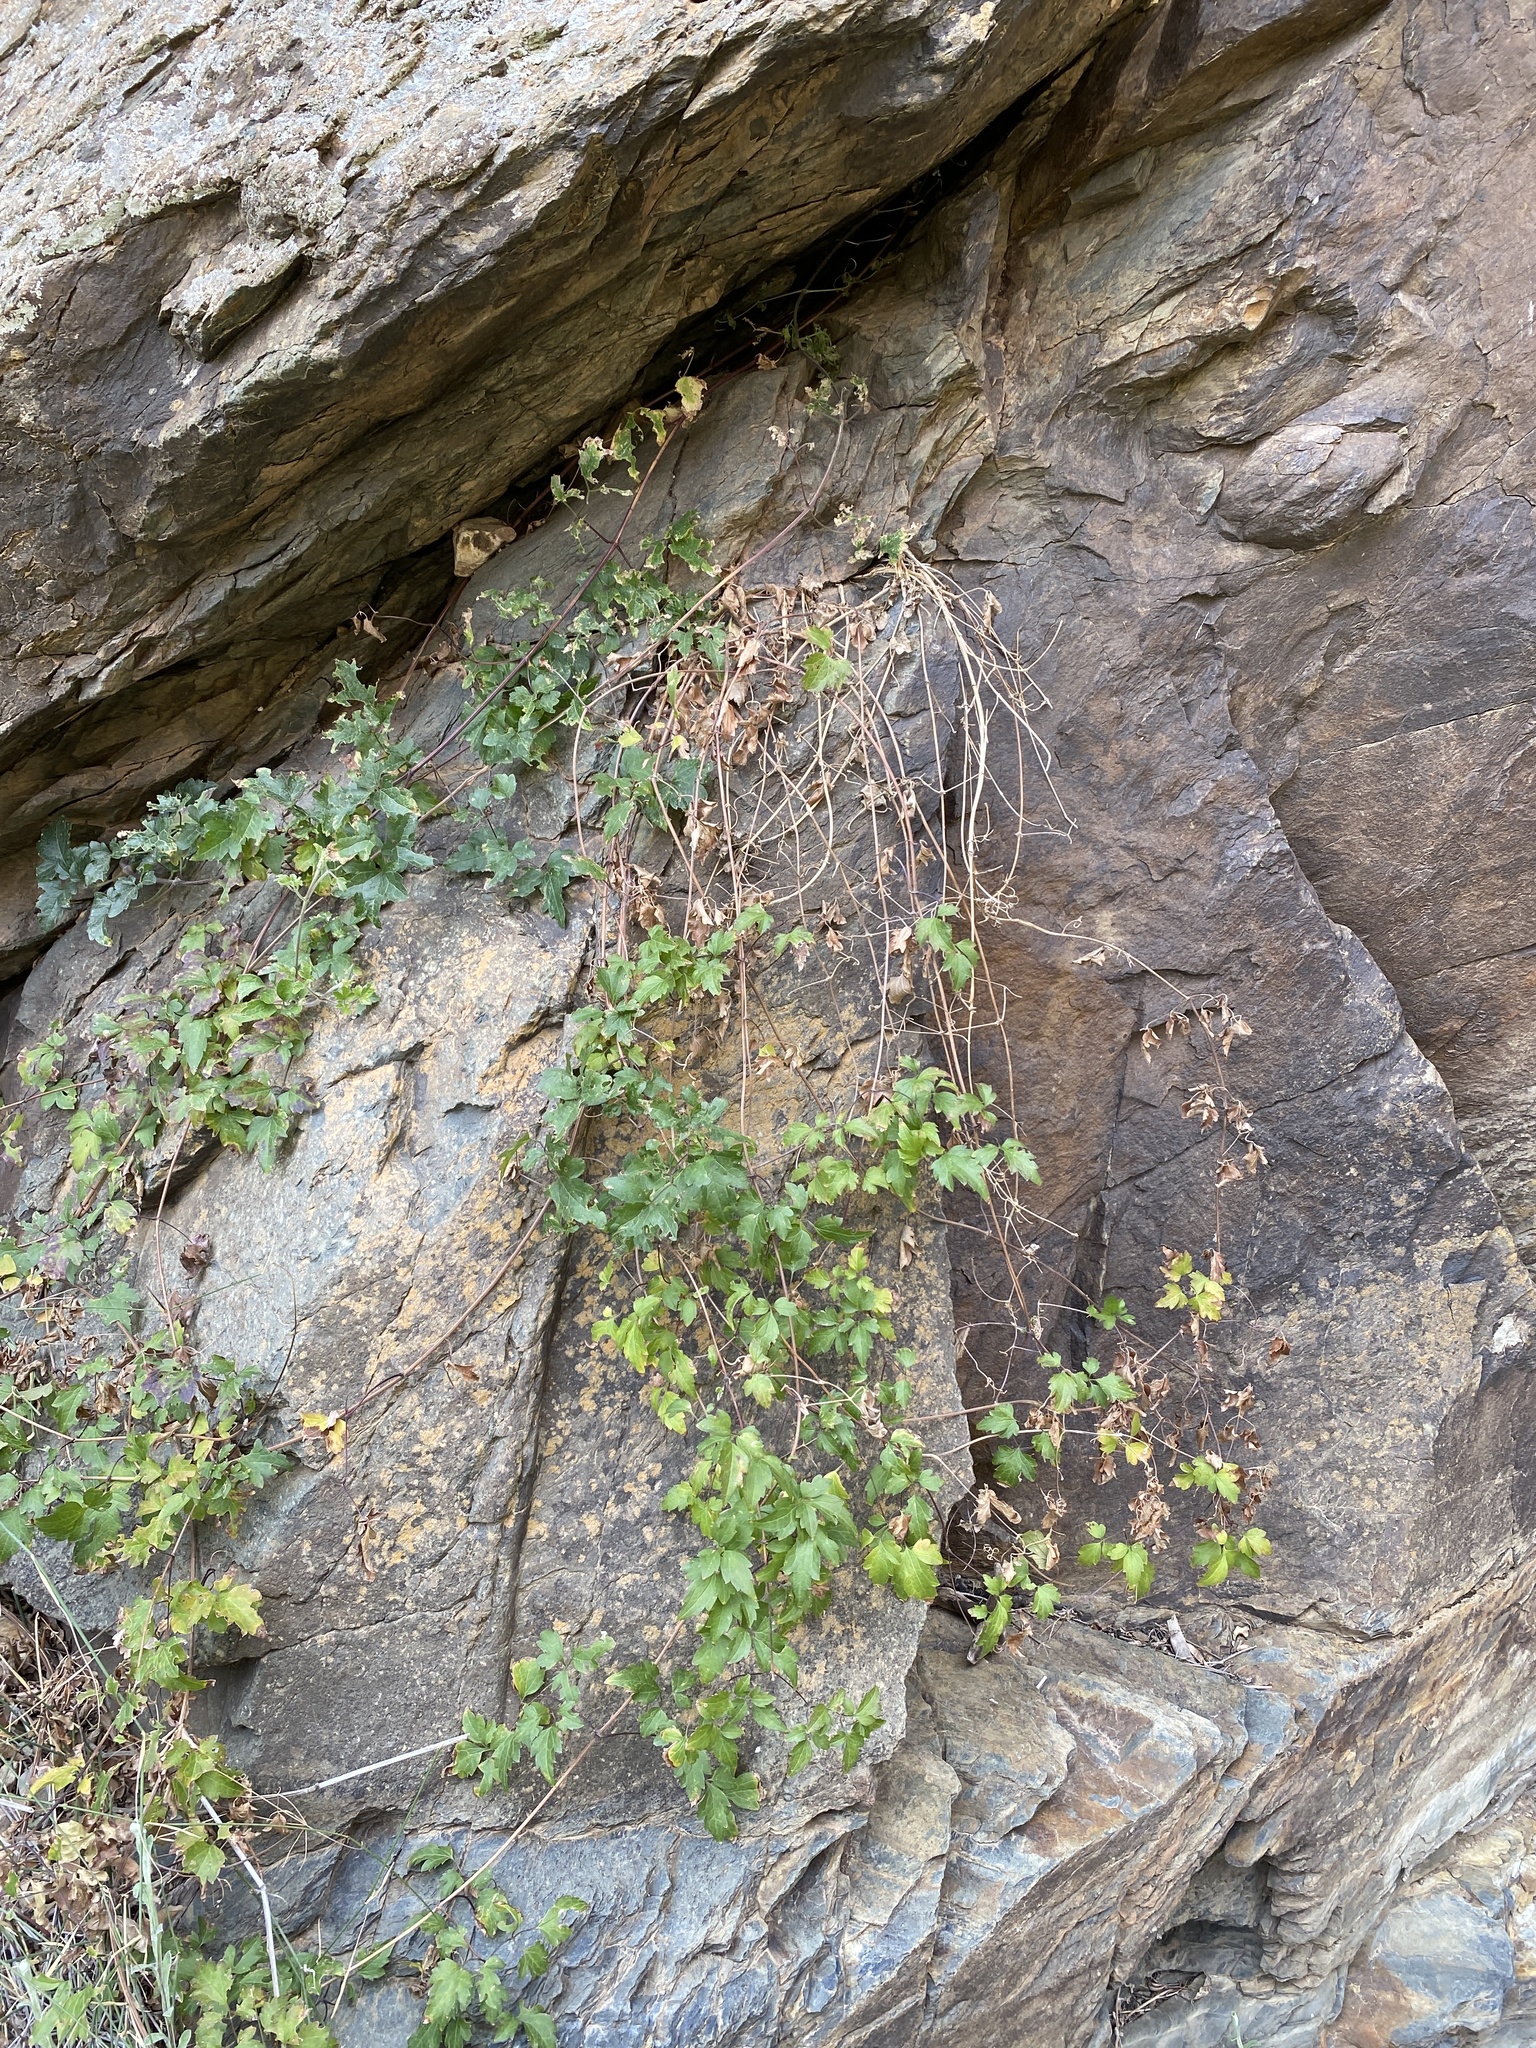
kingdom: Plantae
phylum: Tracheophyta
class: Magnoliopsida
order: Ranunculales
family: Ranunculaceae
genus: Clematis
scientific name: Clematis brachiata
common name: Traveler's-joy
